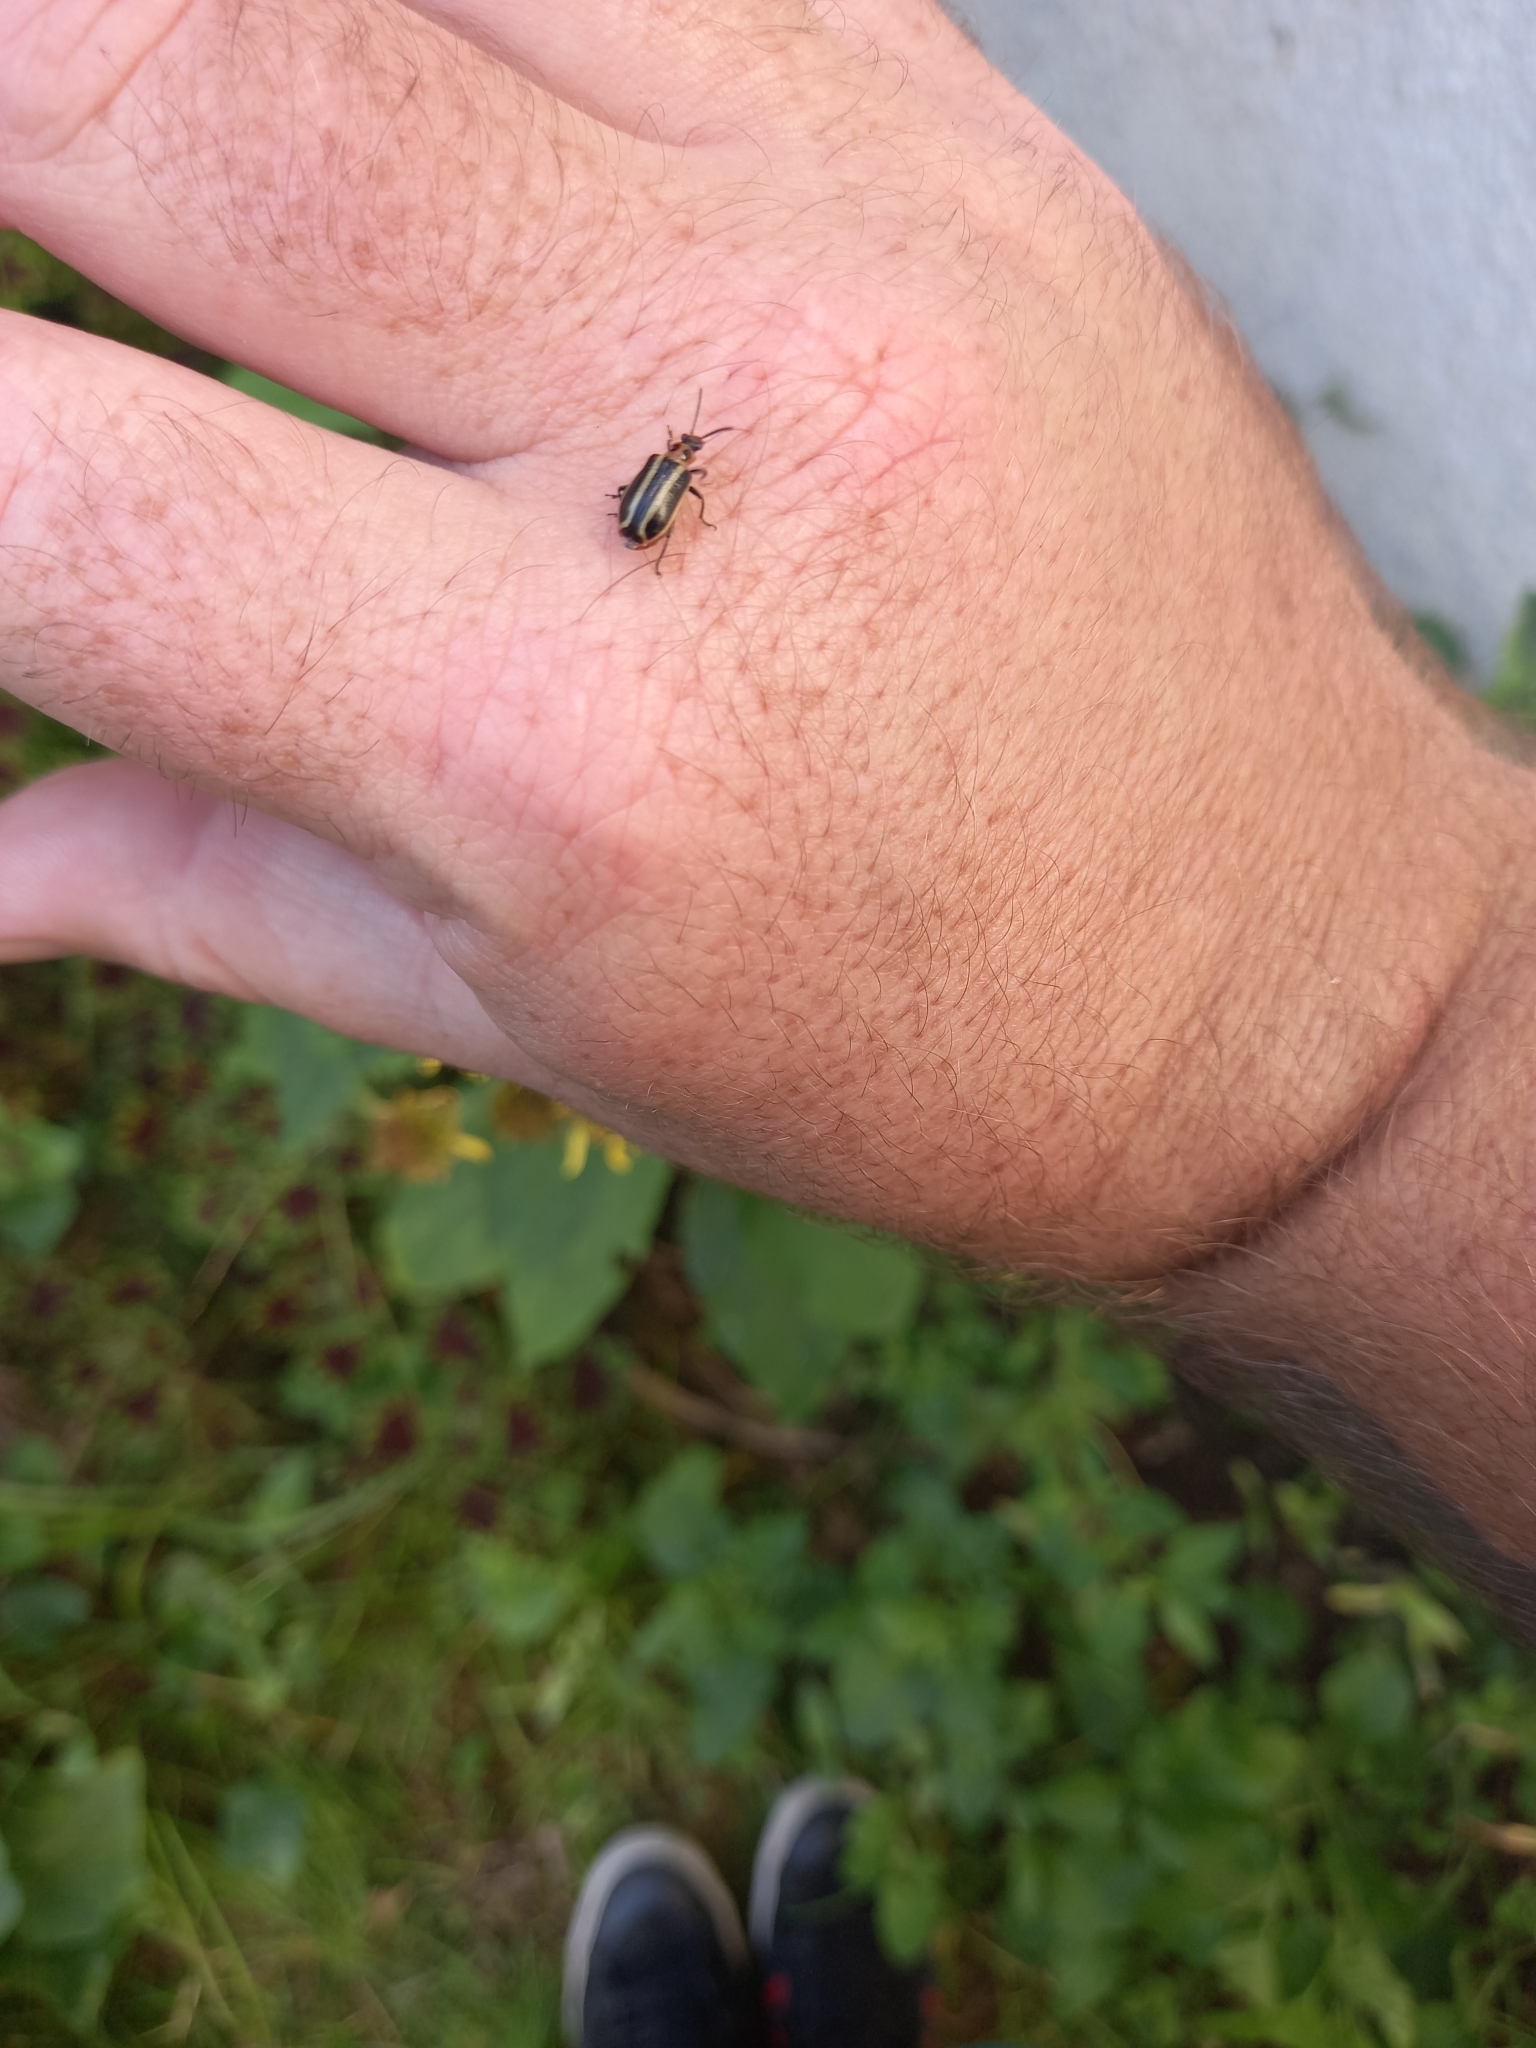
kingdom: Animalia
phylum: Arthropoda
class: Insecta
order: Coleoptera
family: Chrysomelidae
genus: Lema
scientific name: Lema bilineata
